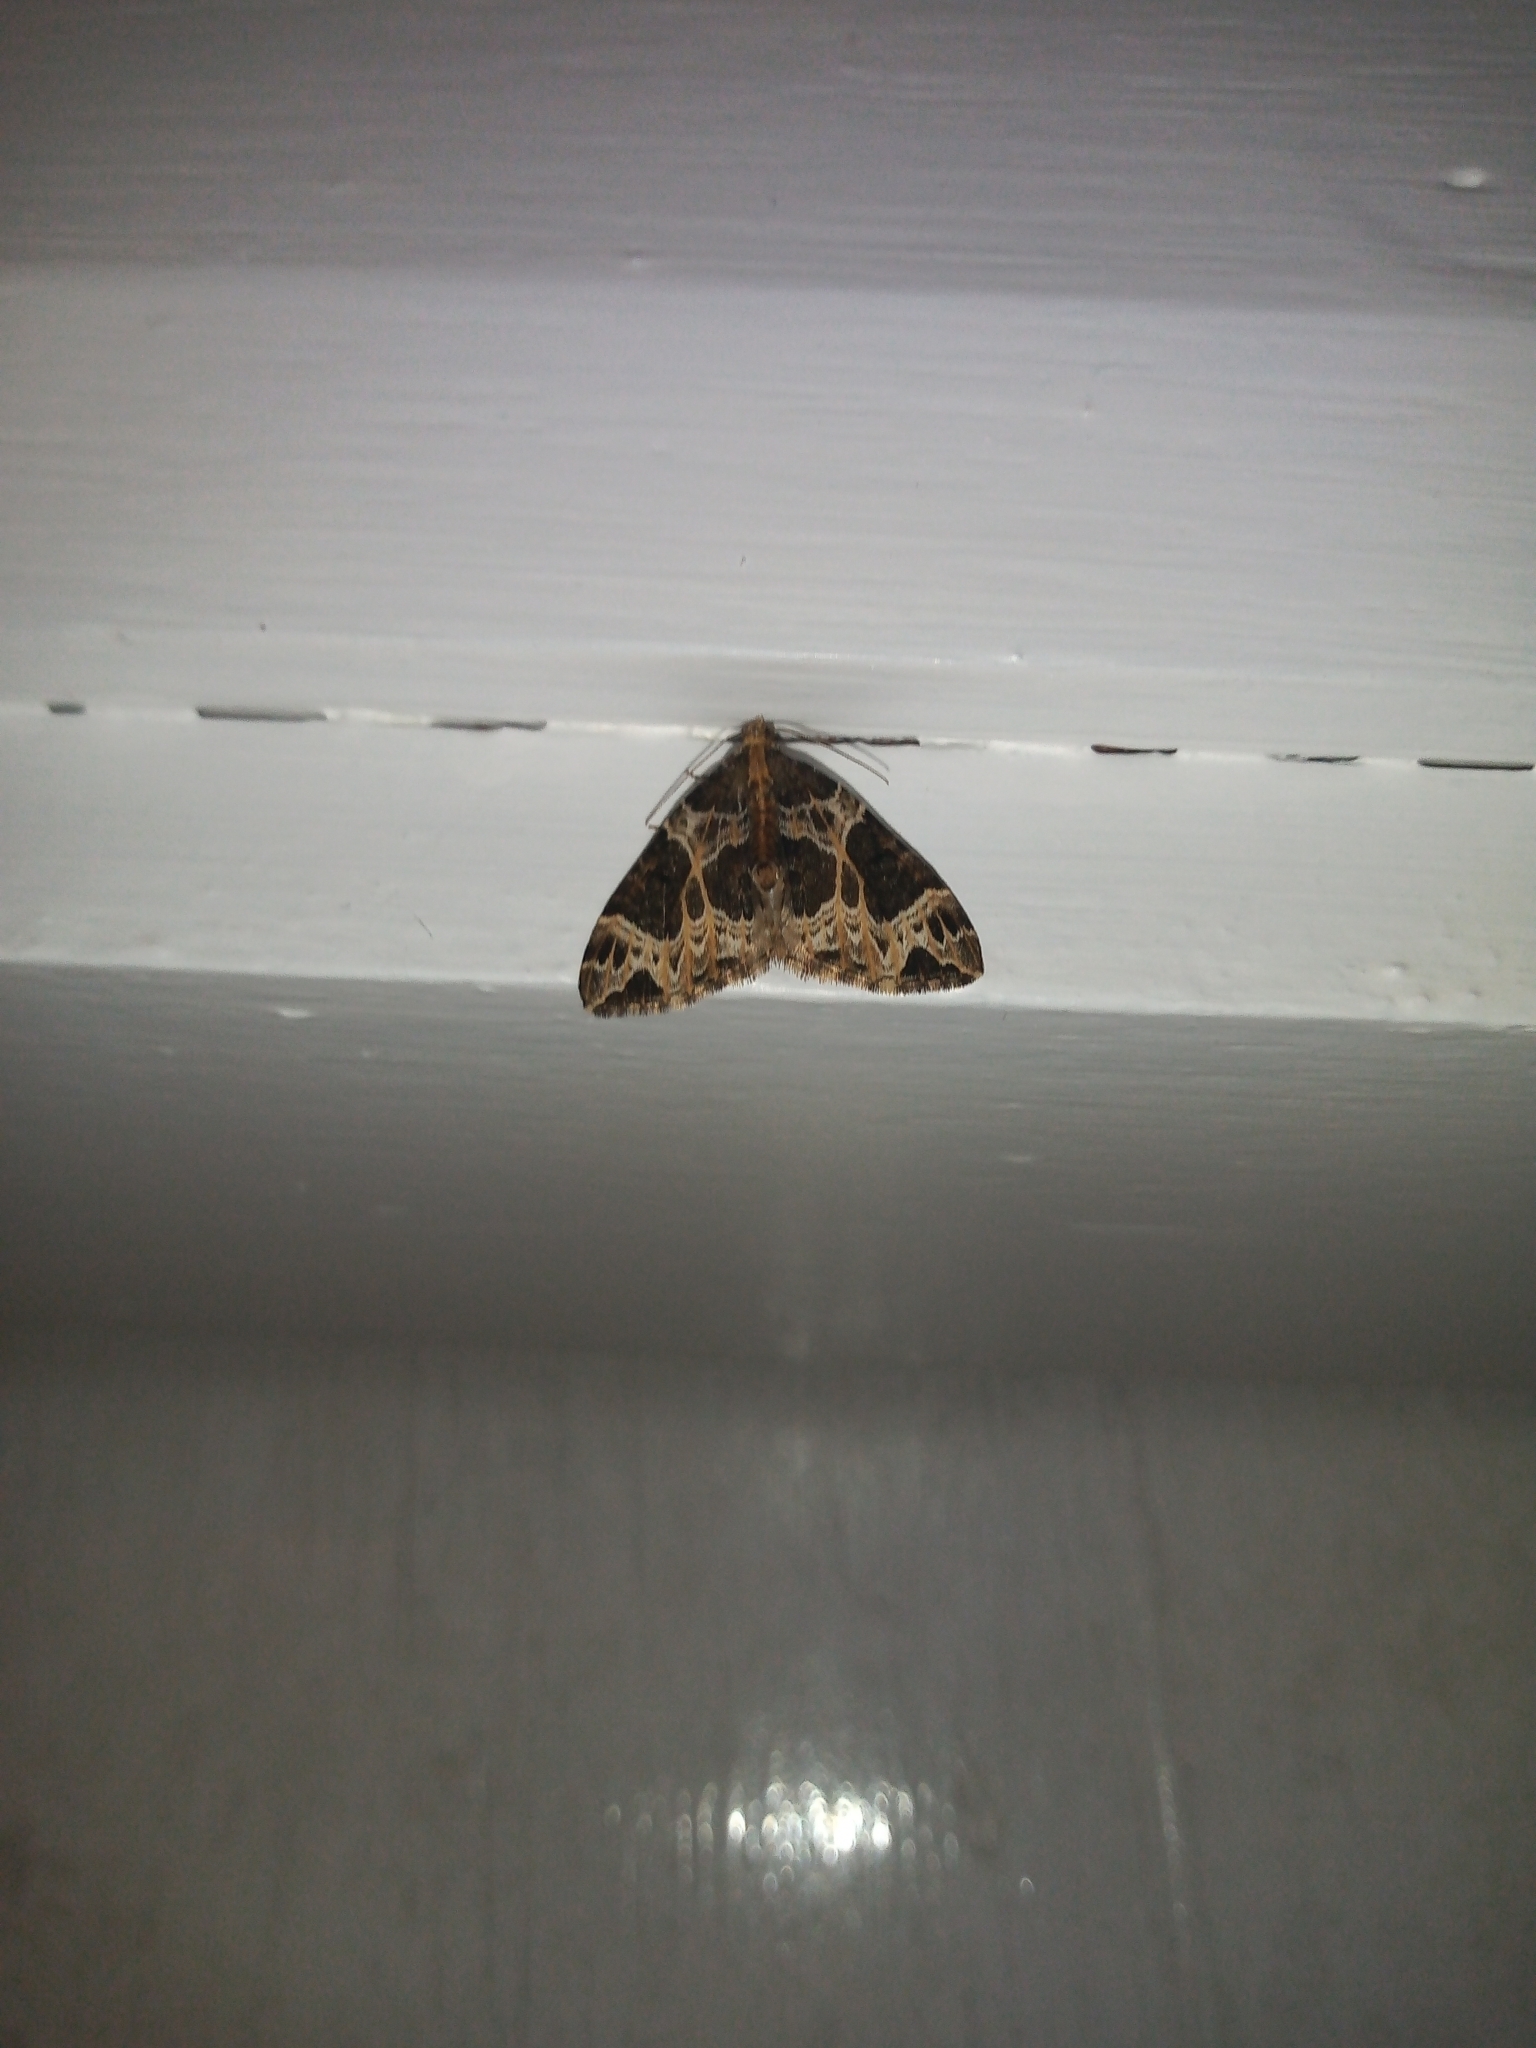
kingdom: Animalia
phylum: Arthropoda
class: Insecta
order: Lepidoptera
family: Geometridae
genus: Ecliptopera
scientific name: Ecliptopera silaceata
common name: Small phoenix
